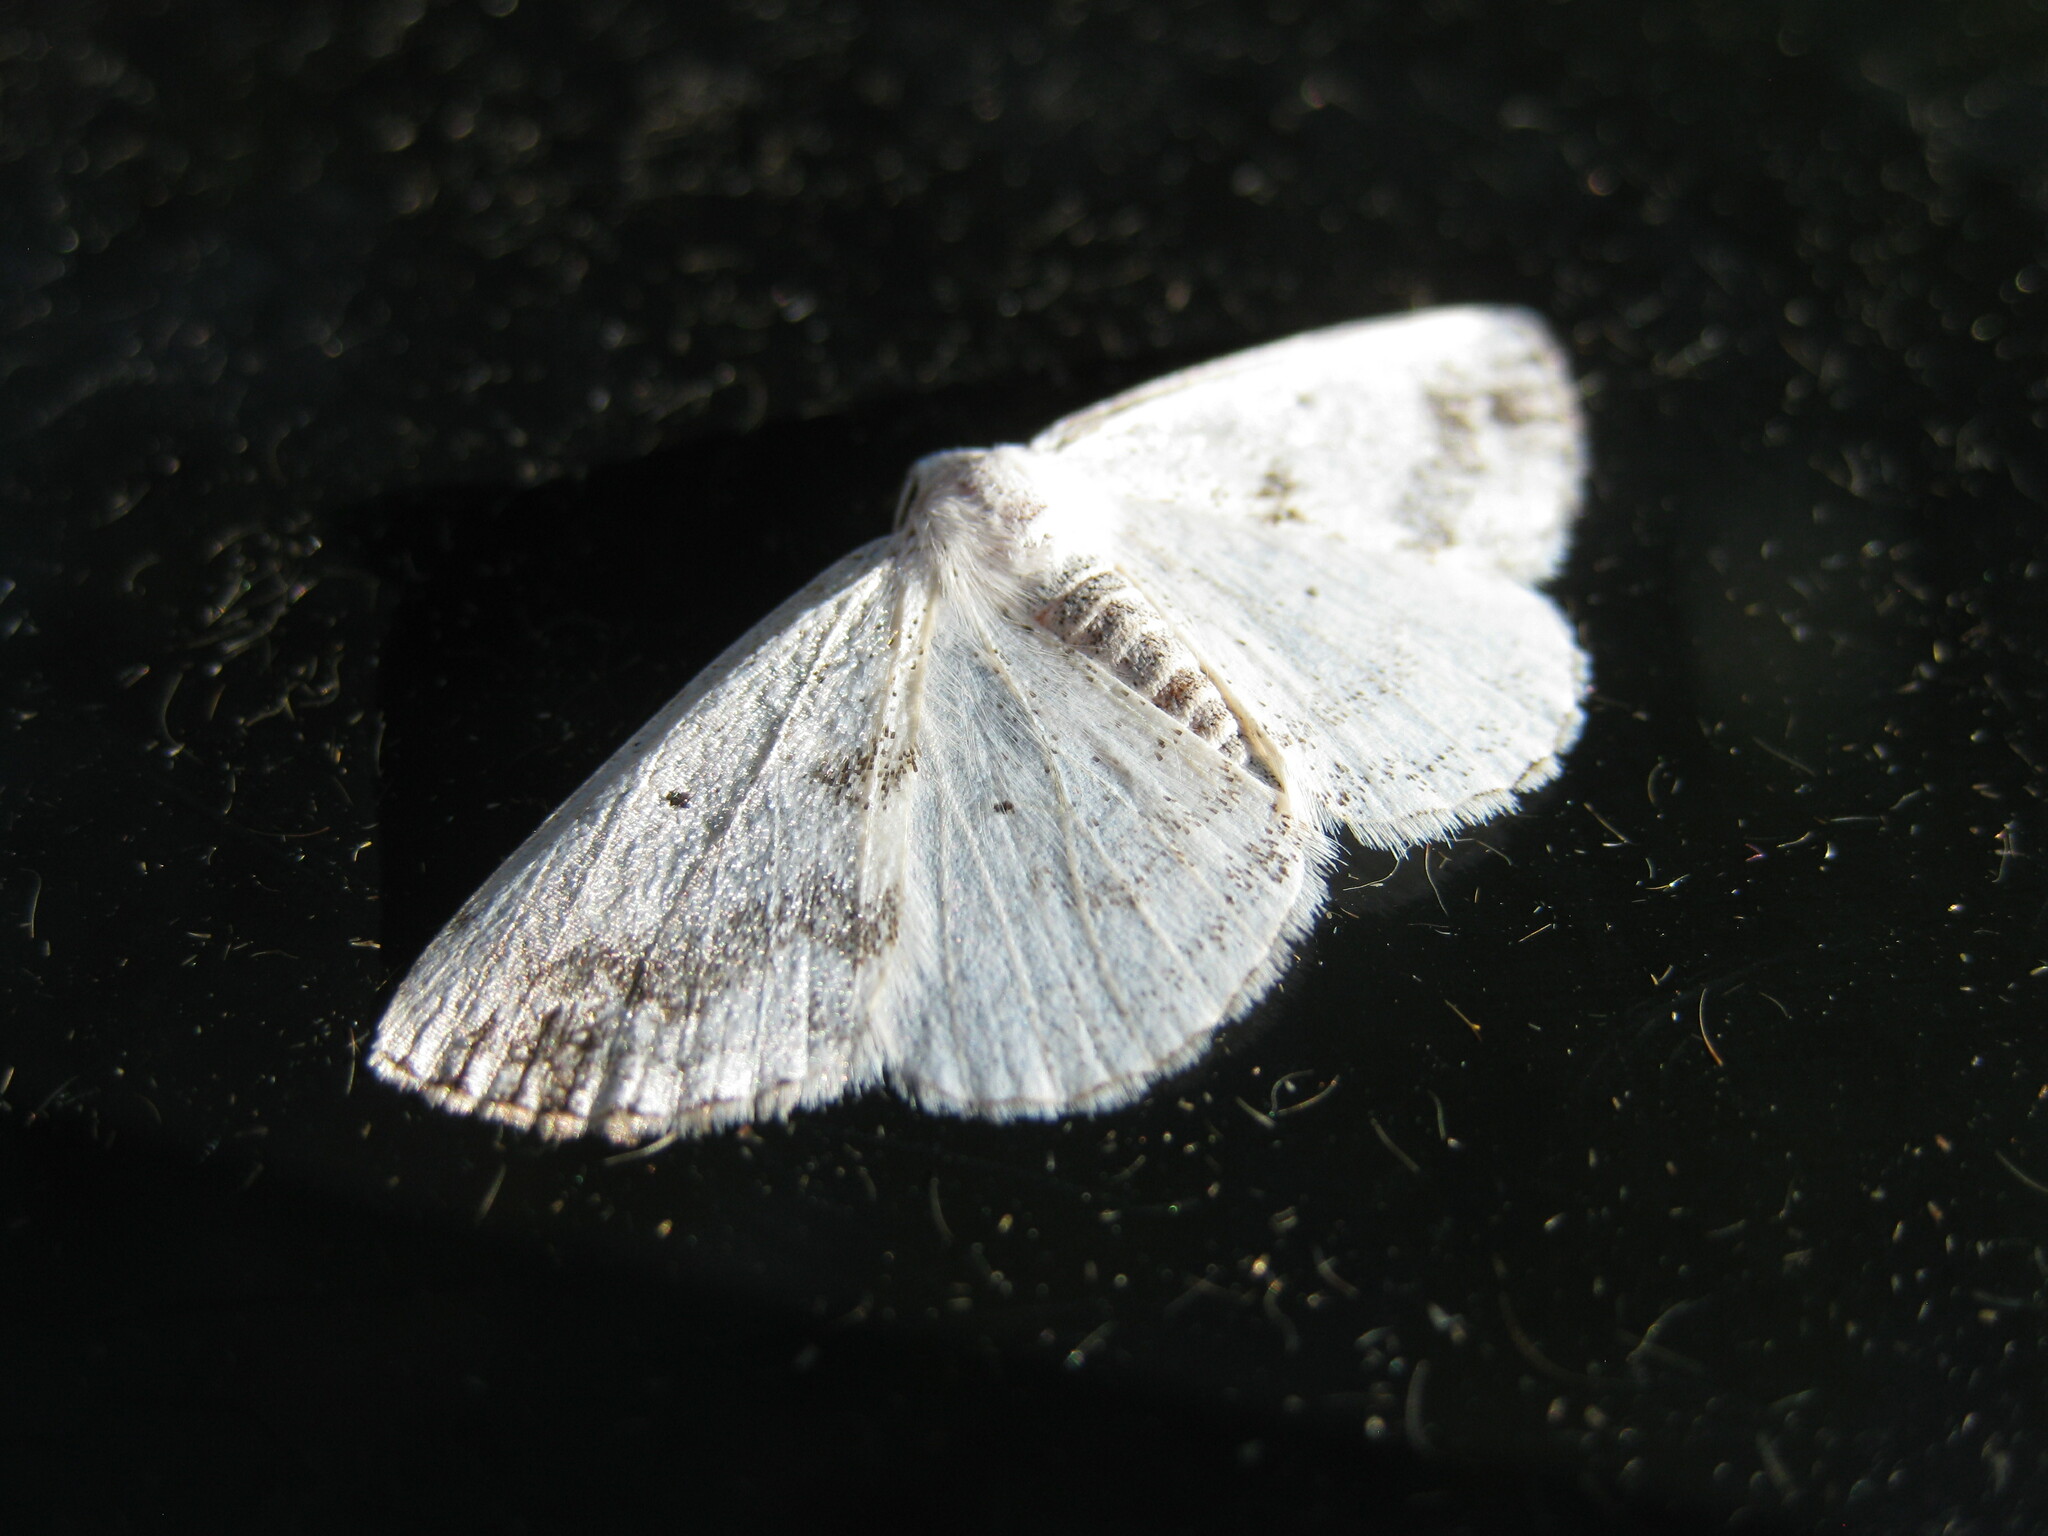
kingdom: Animalia
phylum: Arthropoda
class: Insecta
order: Lepidoptera
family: Geometridae
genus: Lomographa
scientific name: Lomographa temerata
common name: Clouded silver
